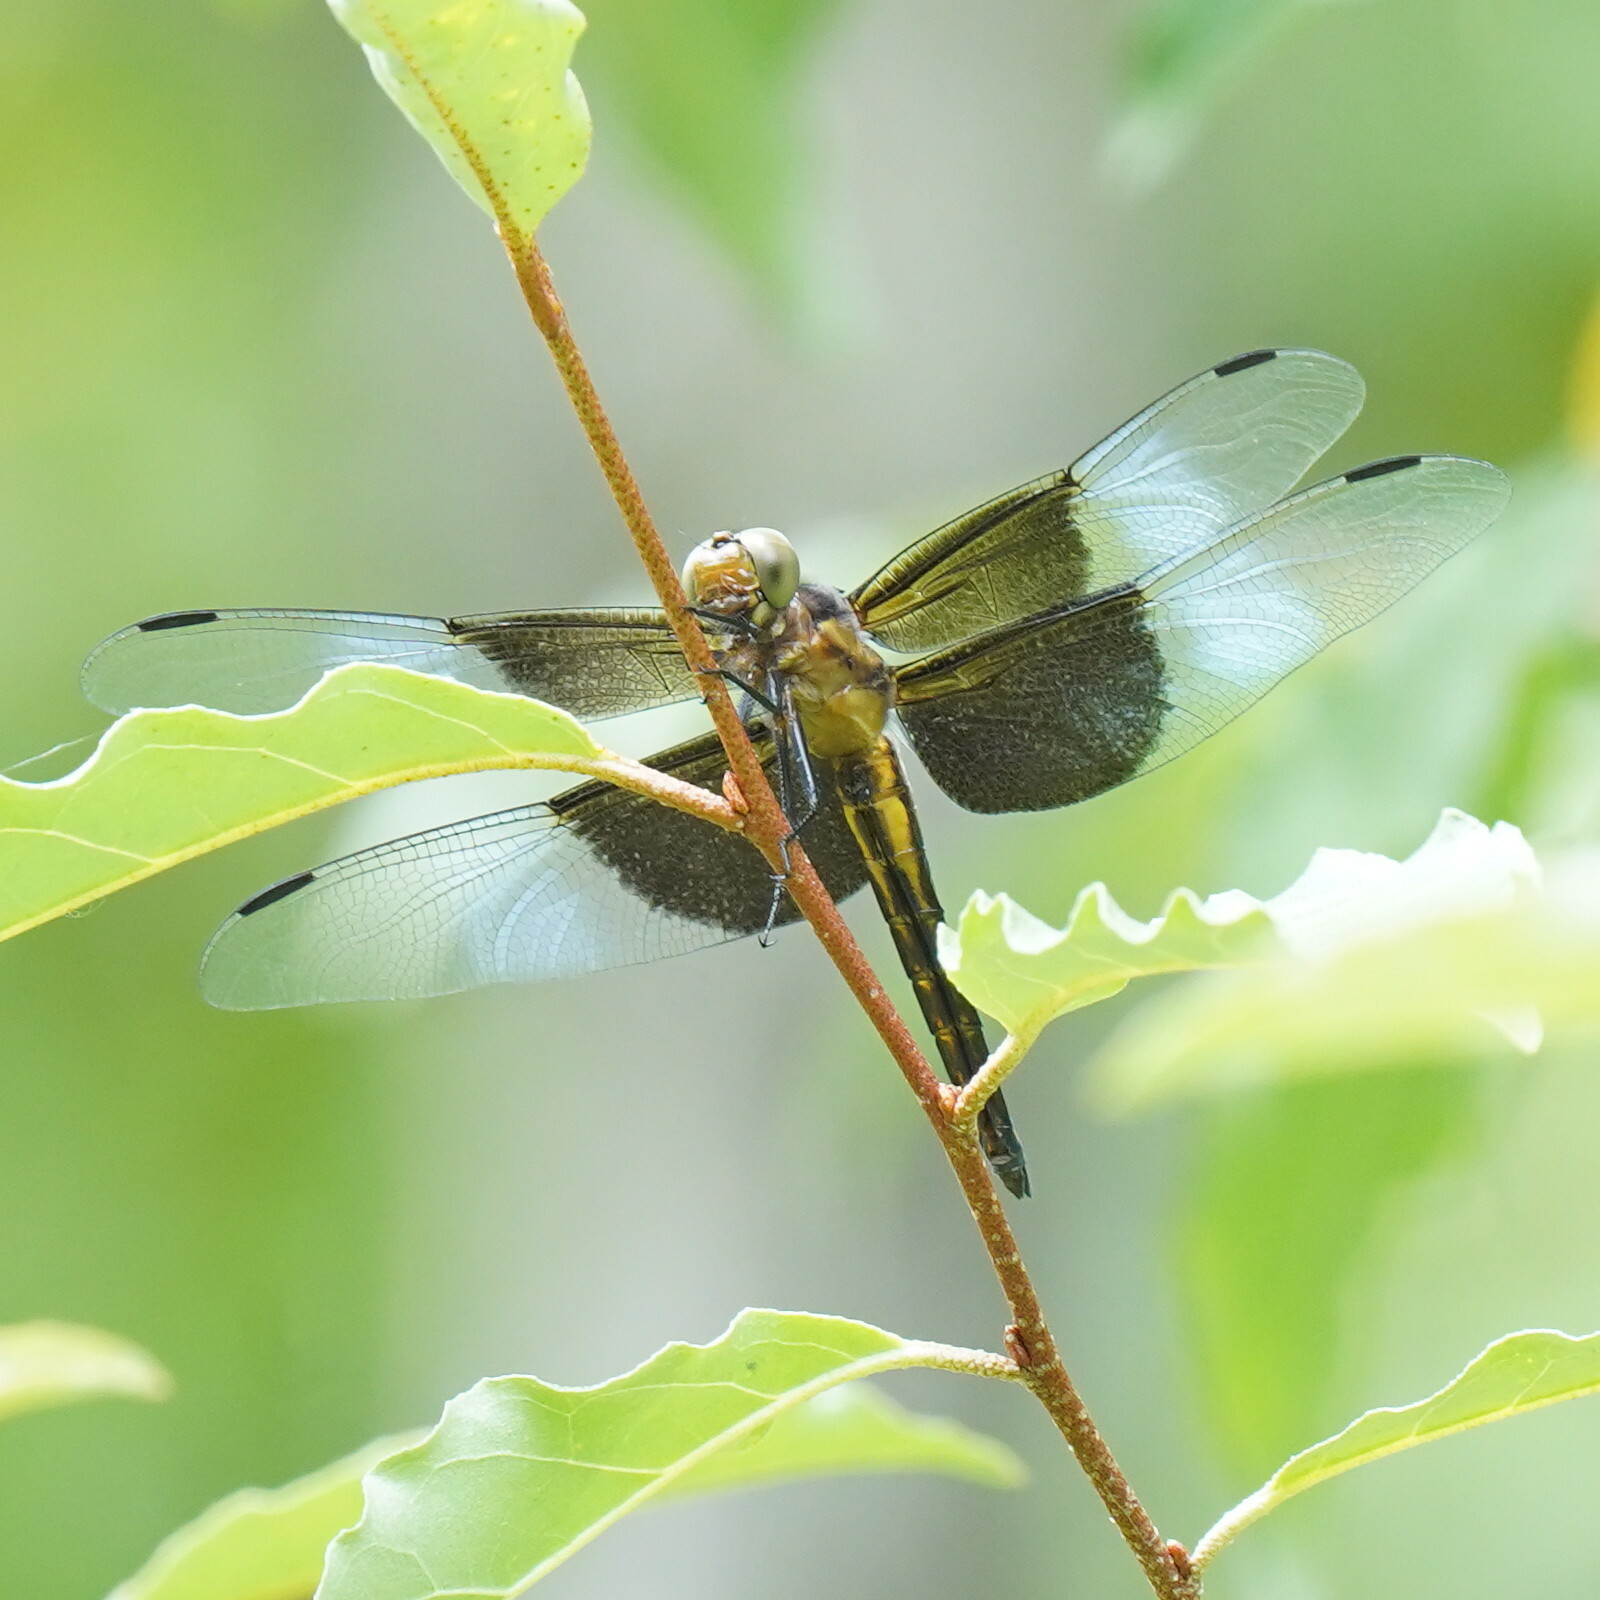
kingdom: Animalia
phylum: Arthropoda
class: Insecta
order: Odonata
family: Libellulidae
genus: Libellula
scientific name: Libellula luctuosa
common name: Widow skimmer
